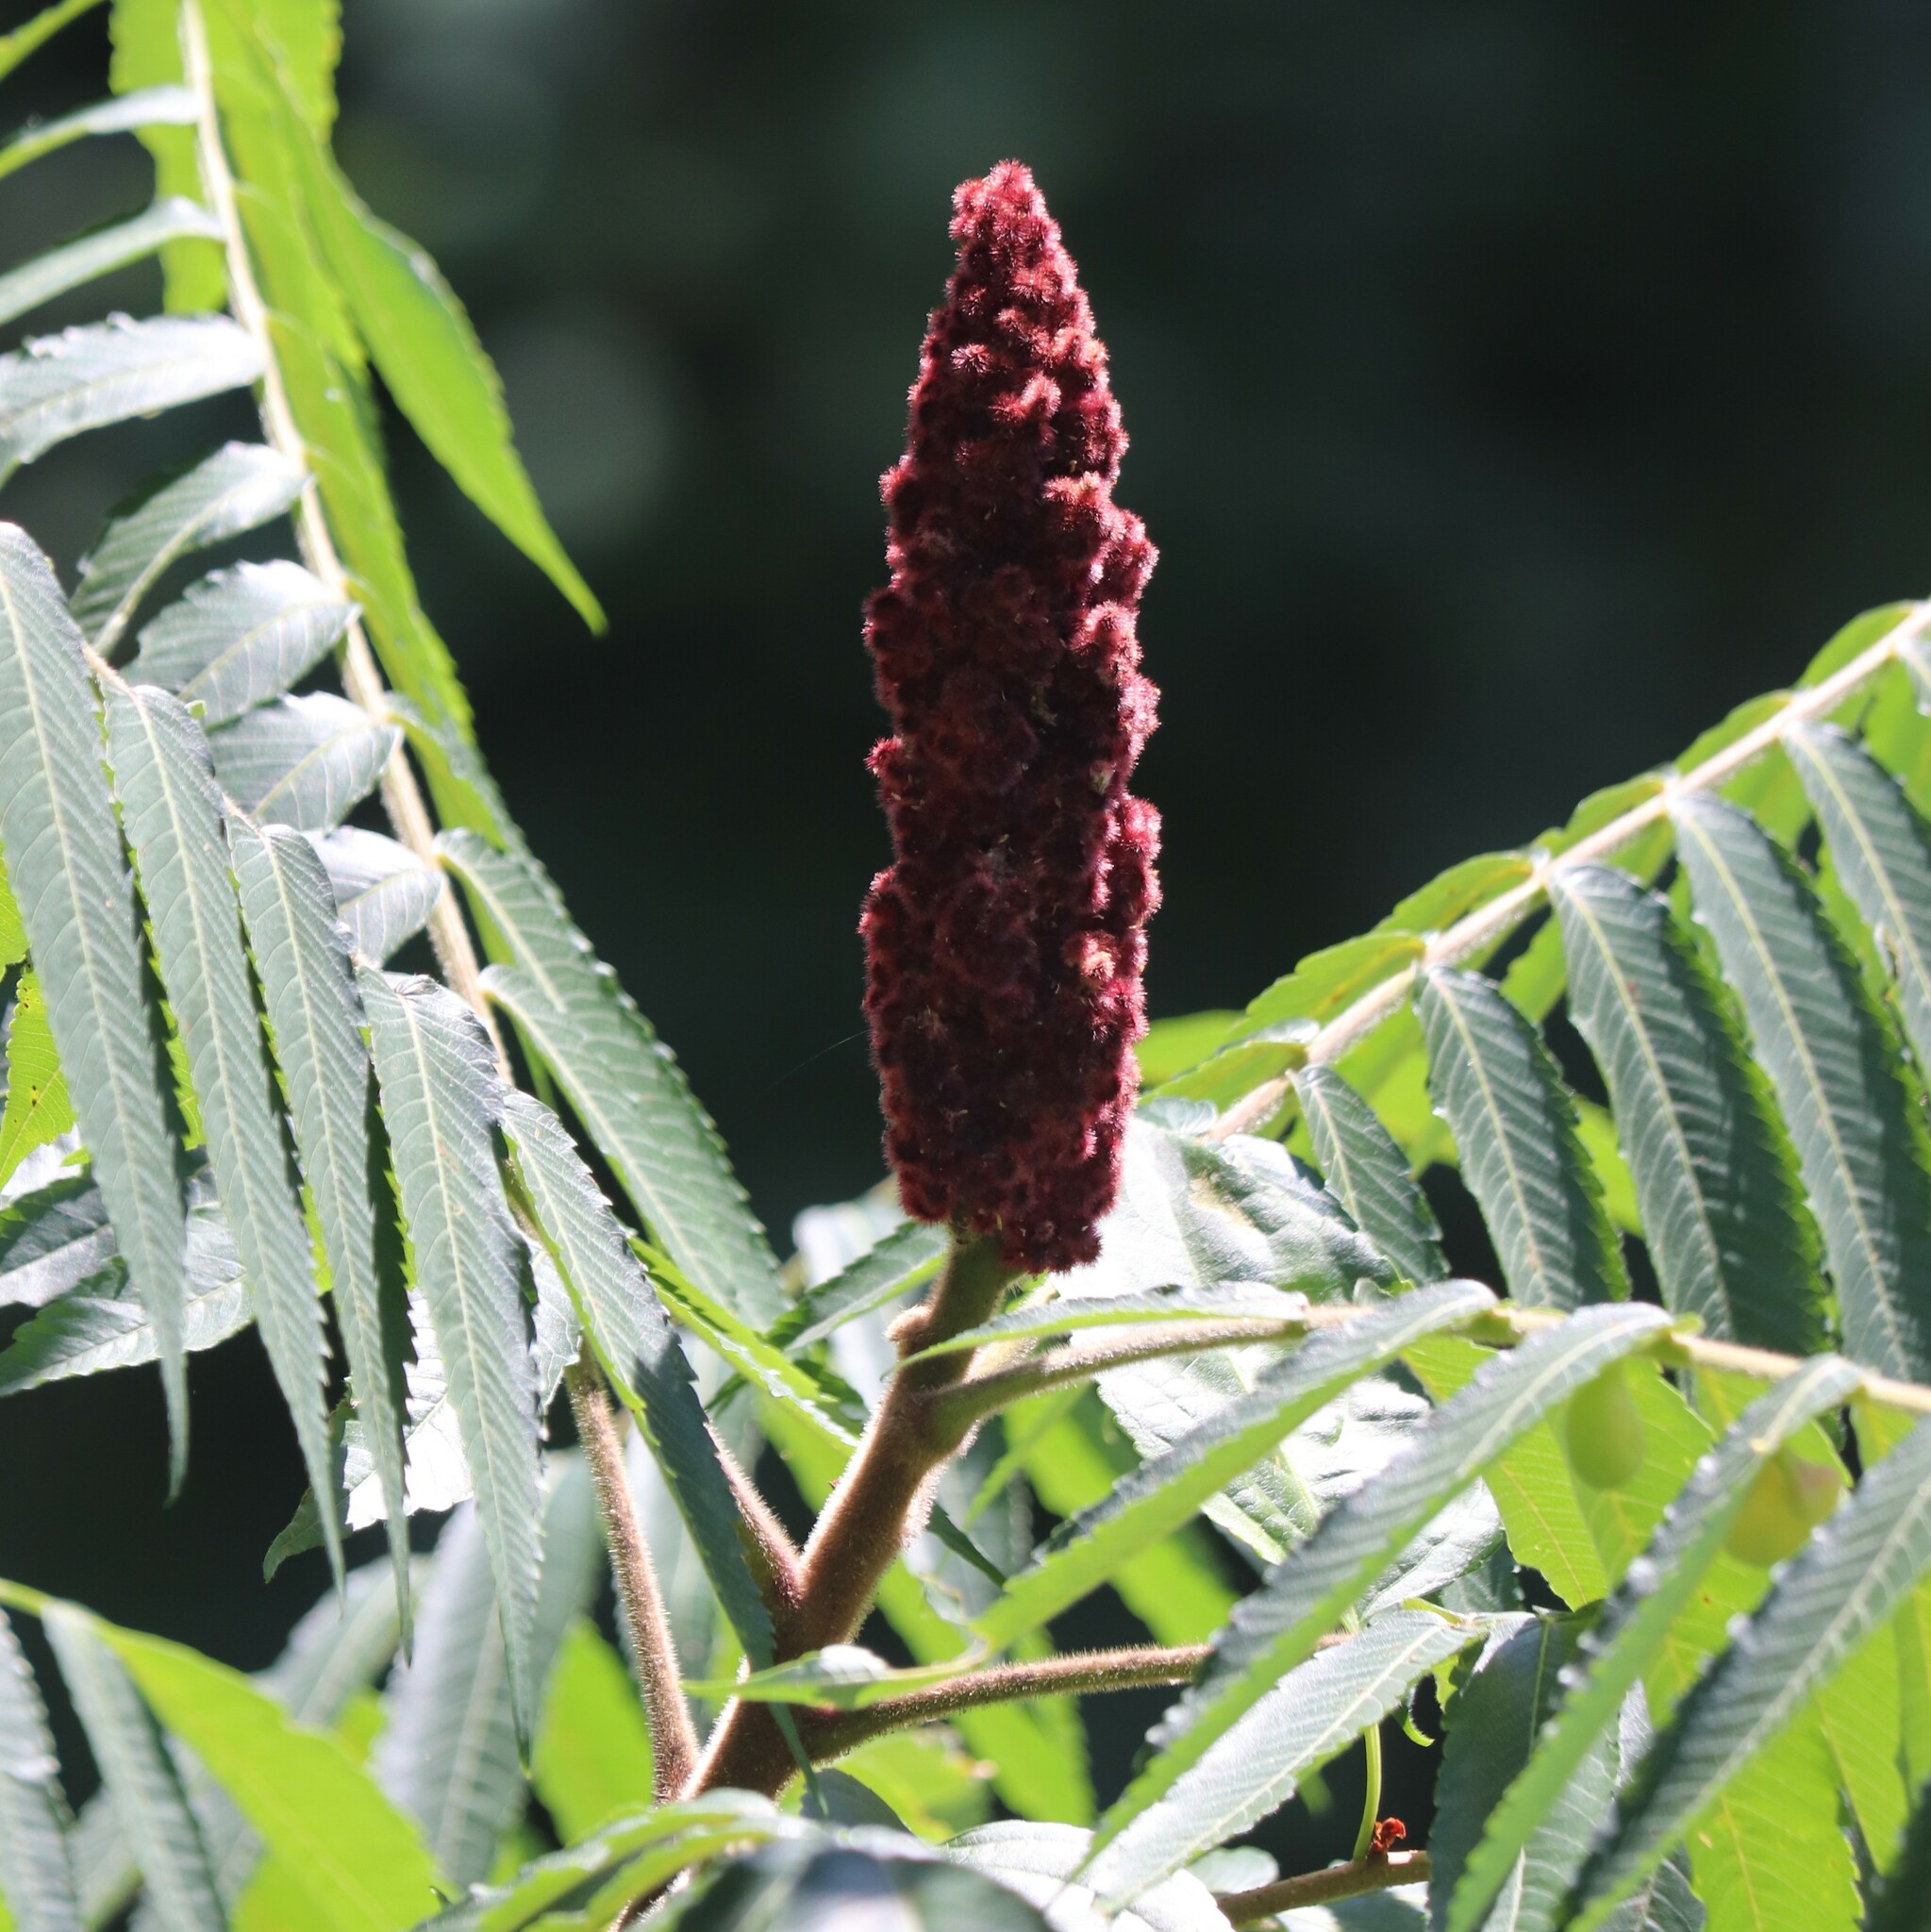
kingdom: Plantae
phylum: Tracheophyta
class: Magnoliopsida
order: Sapindales
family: Anacardiaceae
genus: Rhus
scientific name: Rhus typhina
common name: Staghorn sumac
